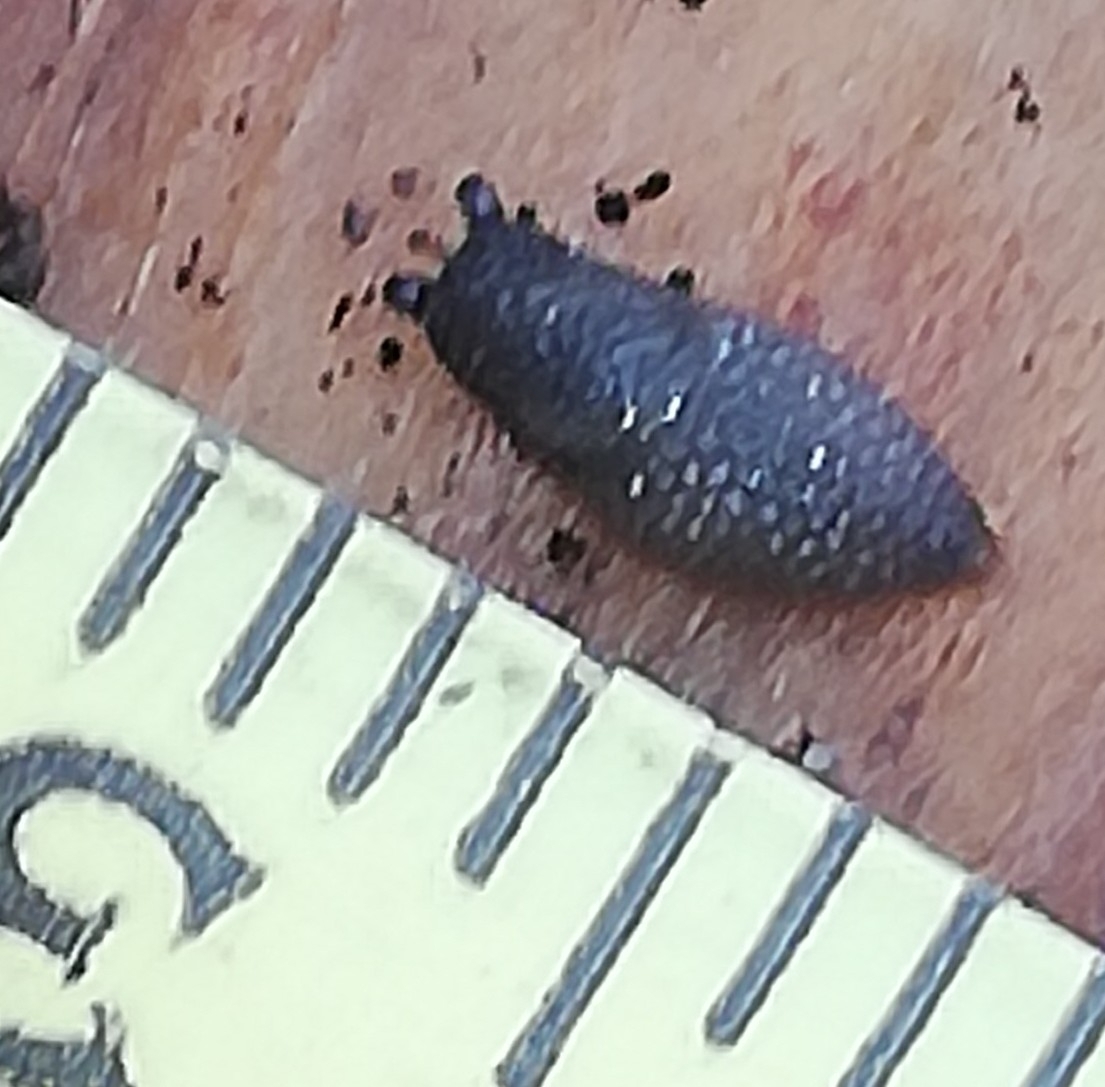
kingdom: Animalia
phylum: Mollusca
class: Gastropoda
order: Stylommatophora
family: Arionidae
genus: Arion
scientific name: Arion intermedius
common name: Hedgehog slug
